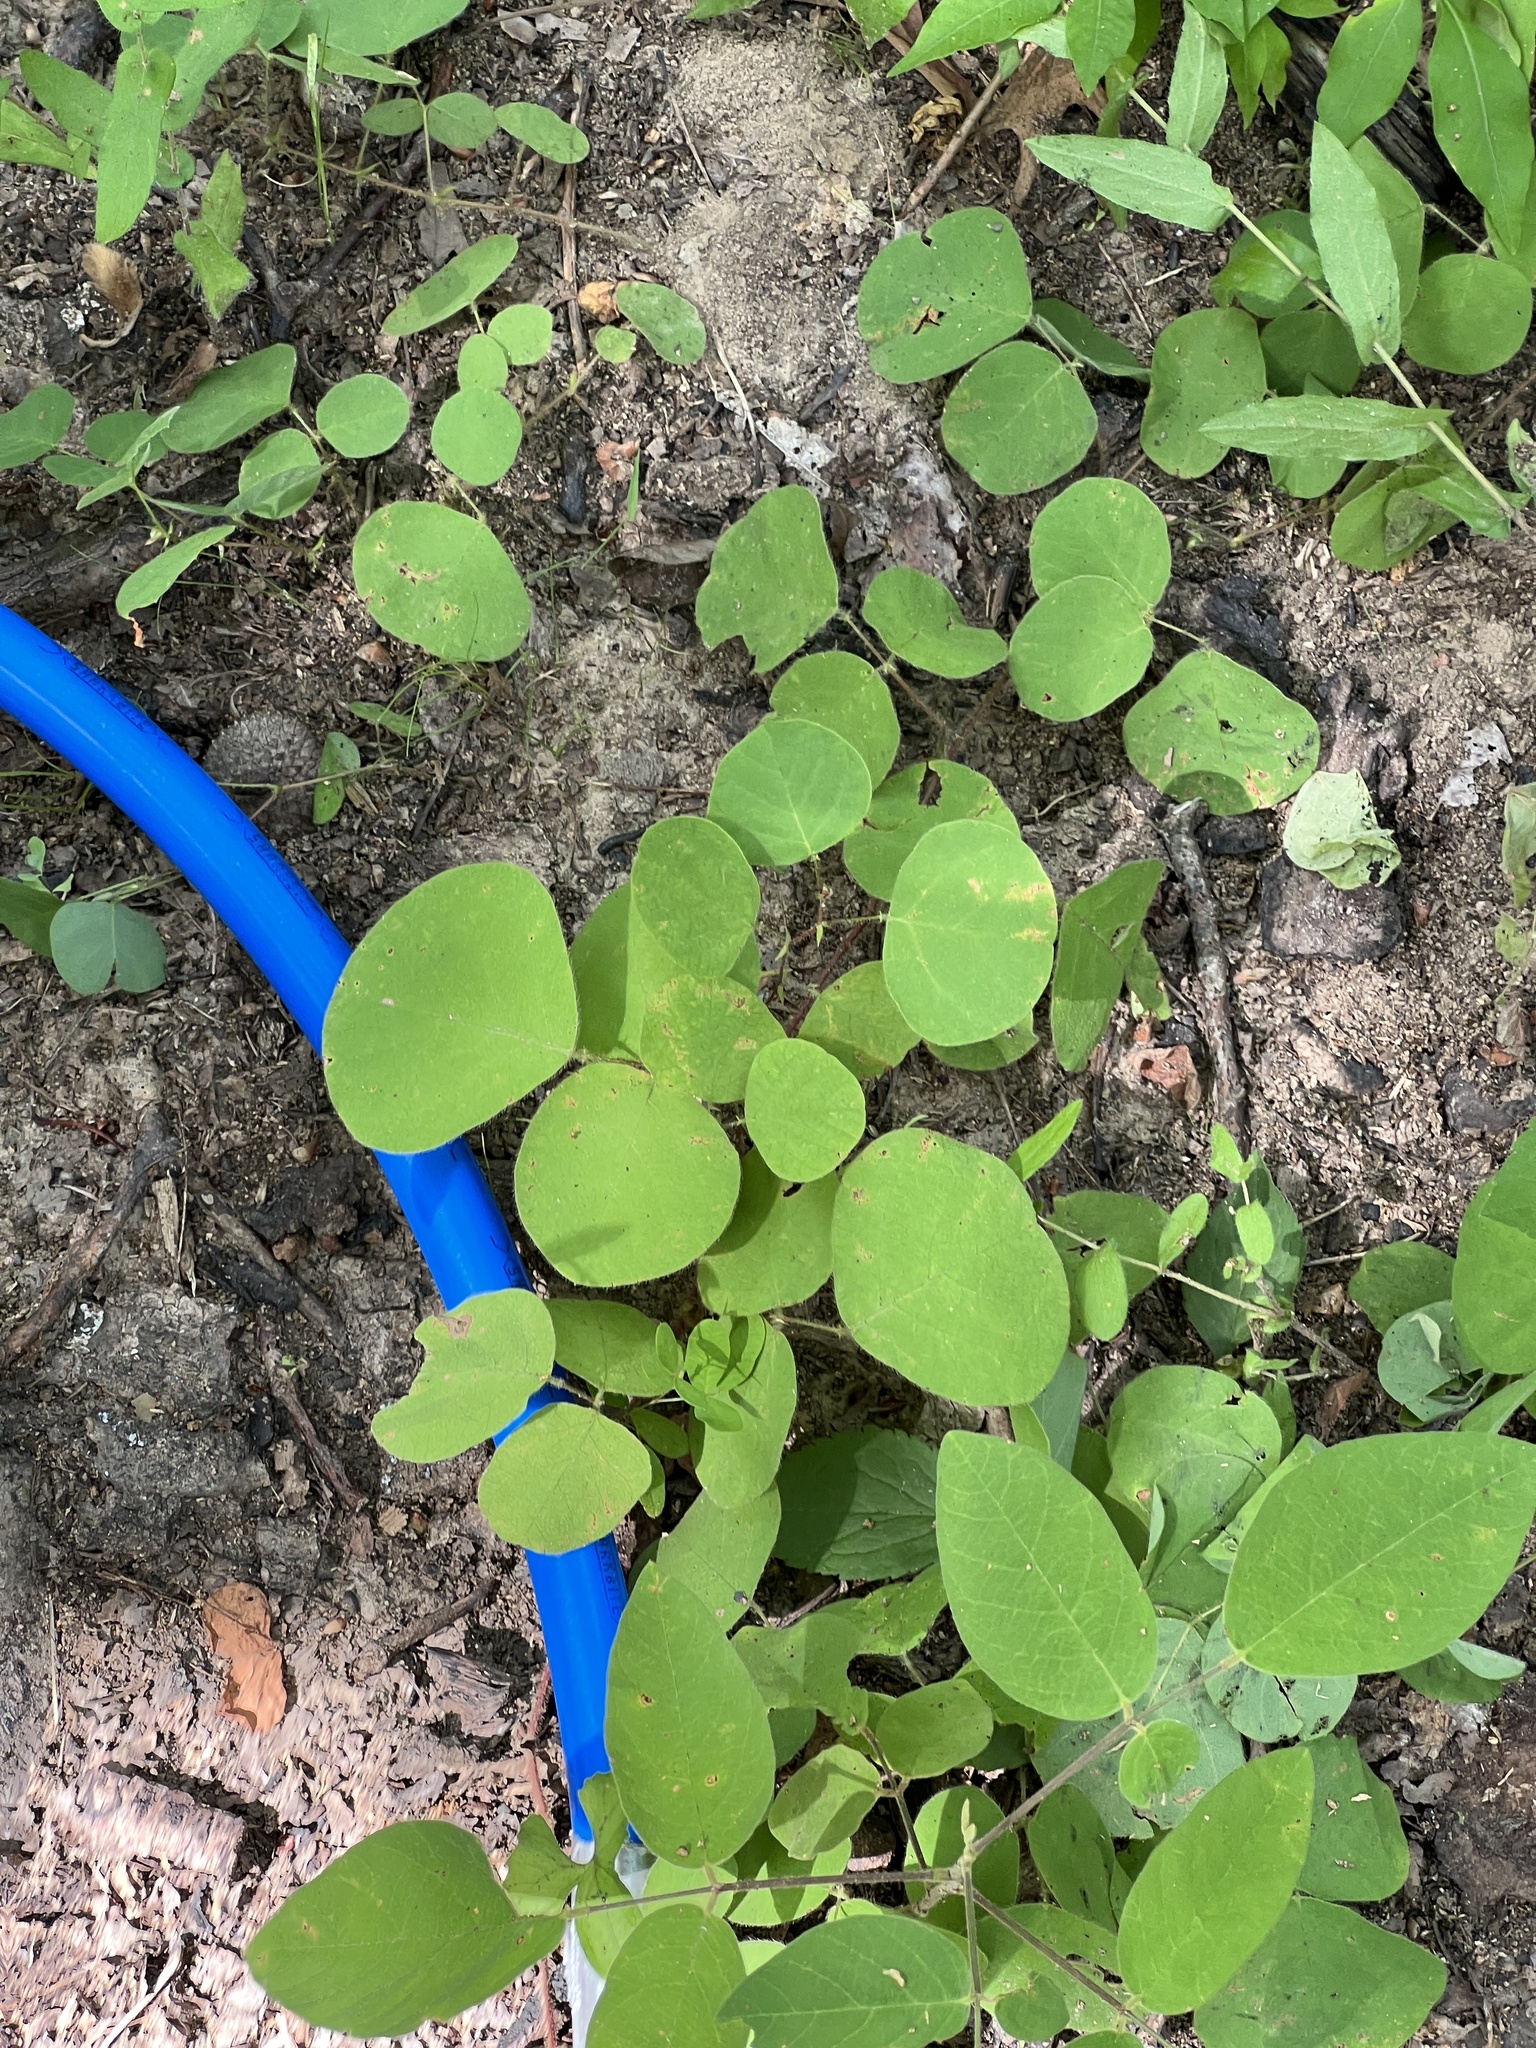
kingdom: Plantae
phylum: Tracheophyta
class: Magnoliopsida
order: Fabales
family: Fabaceae
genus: Desmodium
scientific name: Desmodium rotundifolium
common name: Dollarleaf
